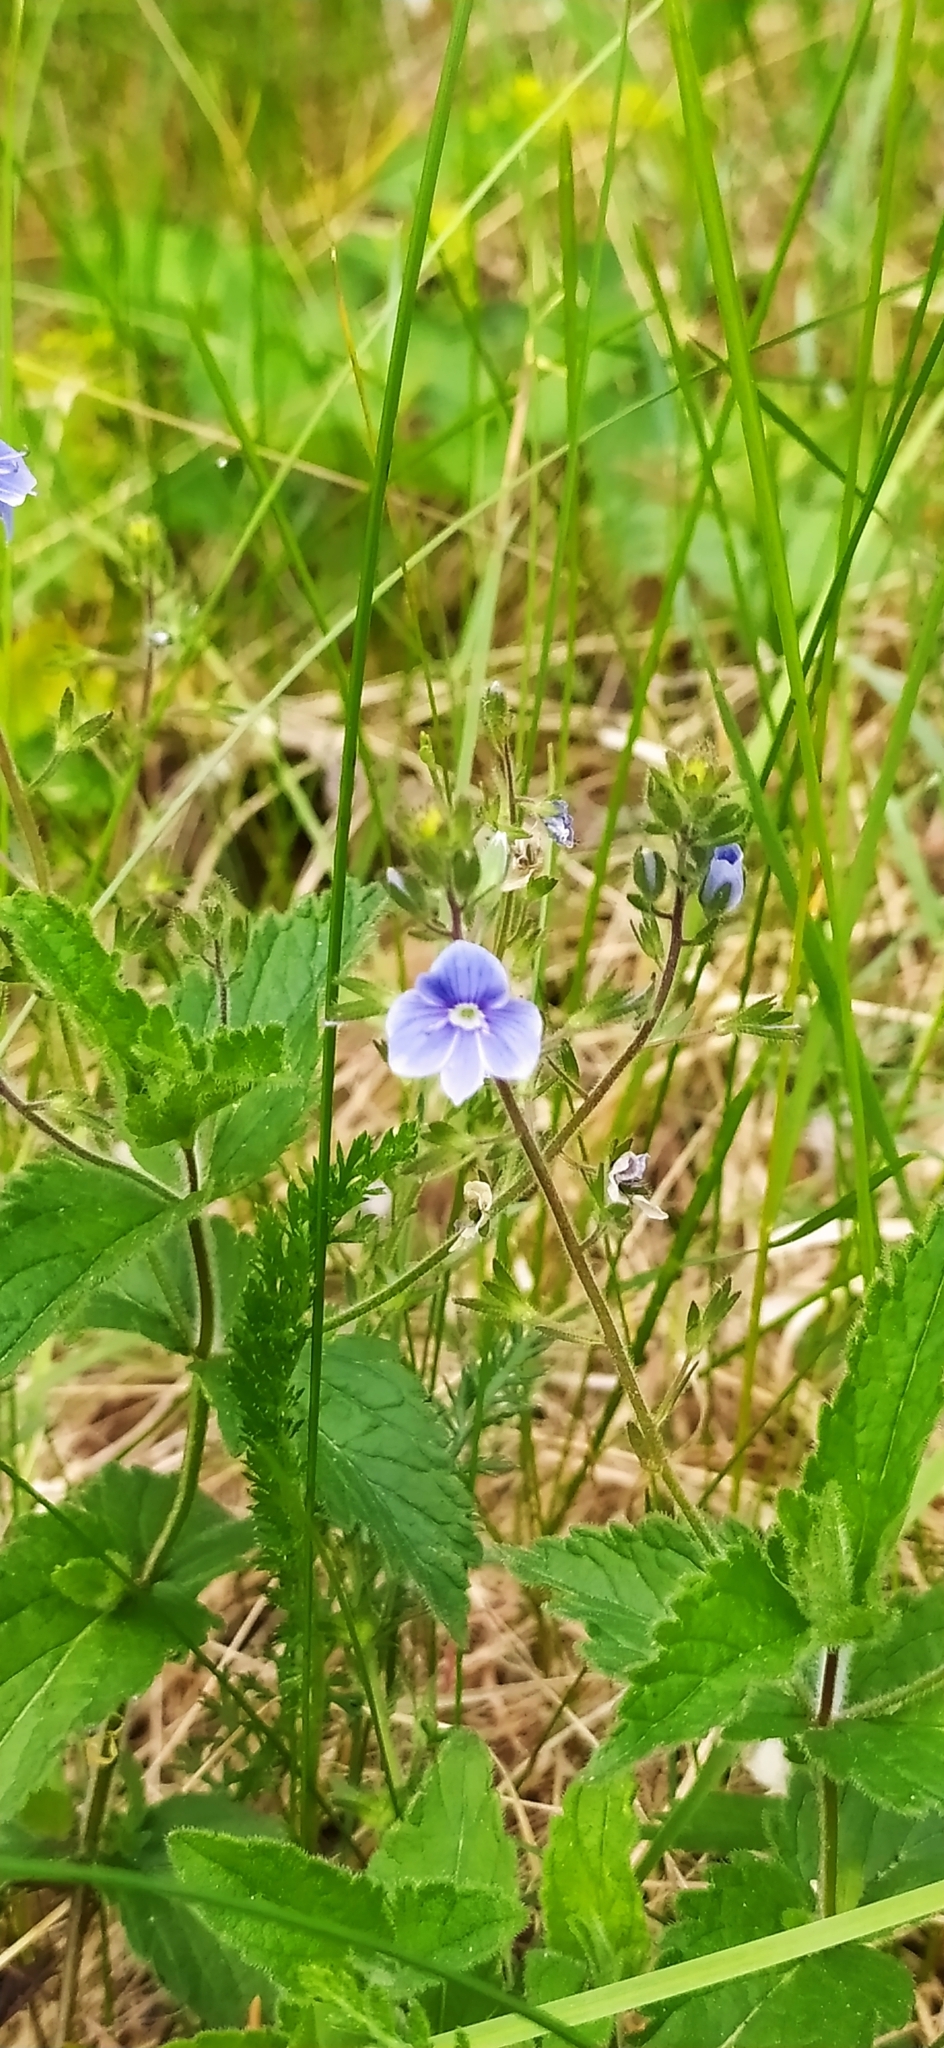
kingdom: Plantae
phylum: Tracheophyta
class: Magnoliopsida
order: Lamiales
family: Plantaginaceae
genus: Veronica
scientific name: Veronica chamaedrys
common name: Germander speedwell
